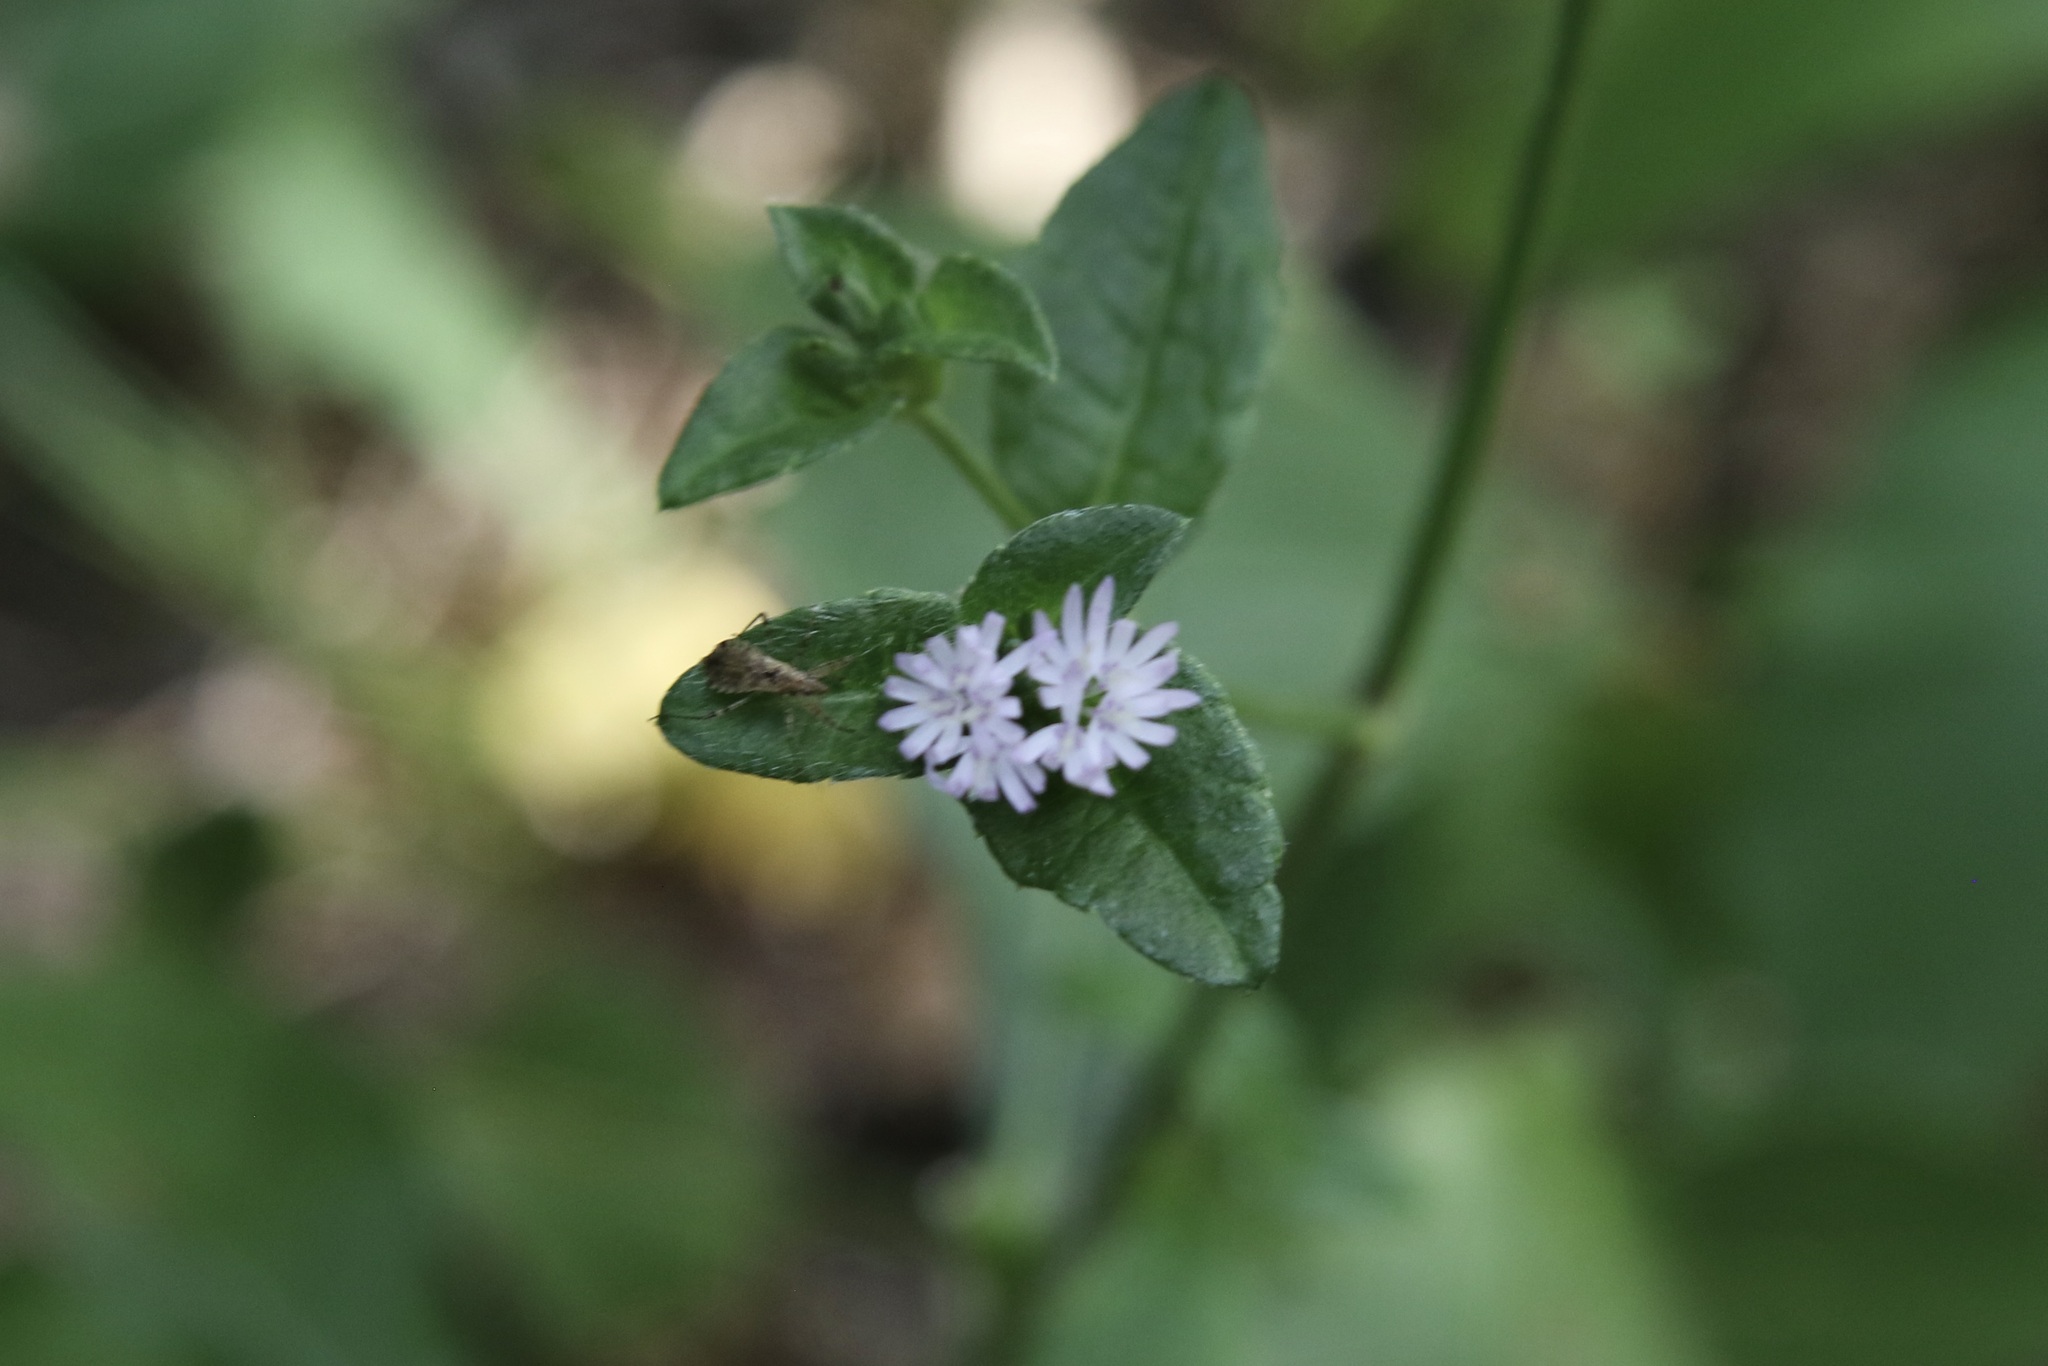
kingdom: Plantae
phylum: Tracheophyta
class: Magnoliopsida
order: Asterales
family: Asteraceae
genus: Elephantopus
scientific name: Elephantopus carolinianus
